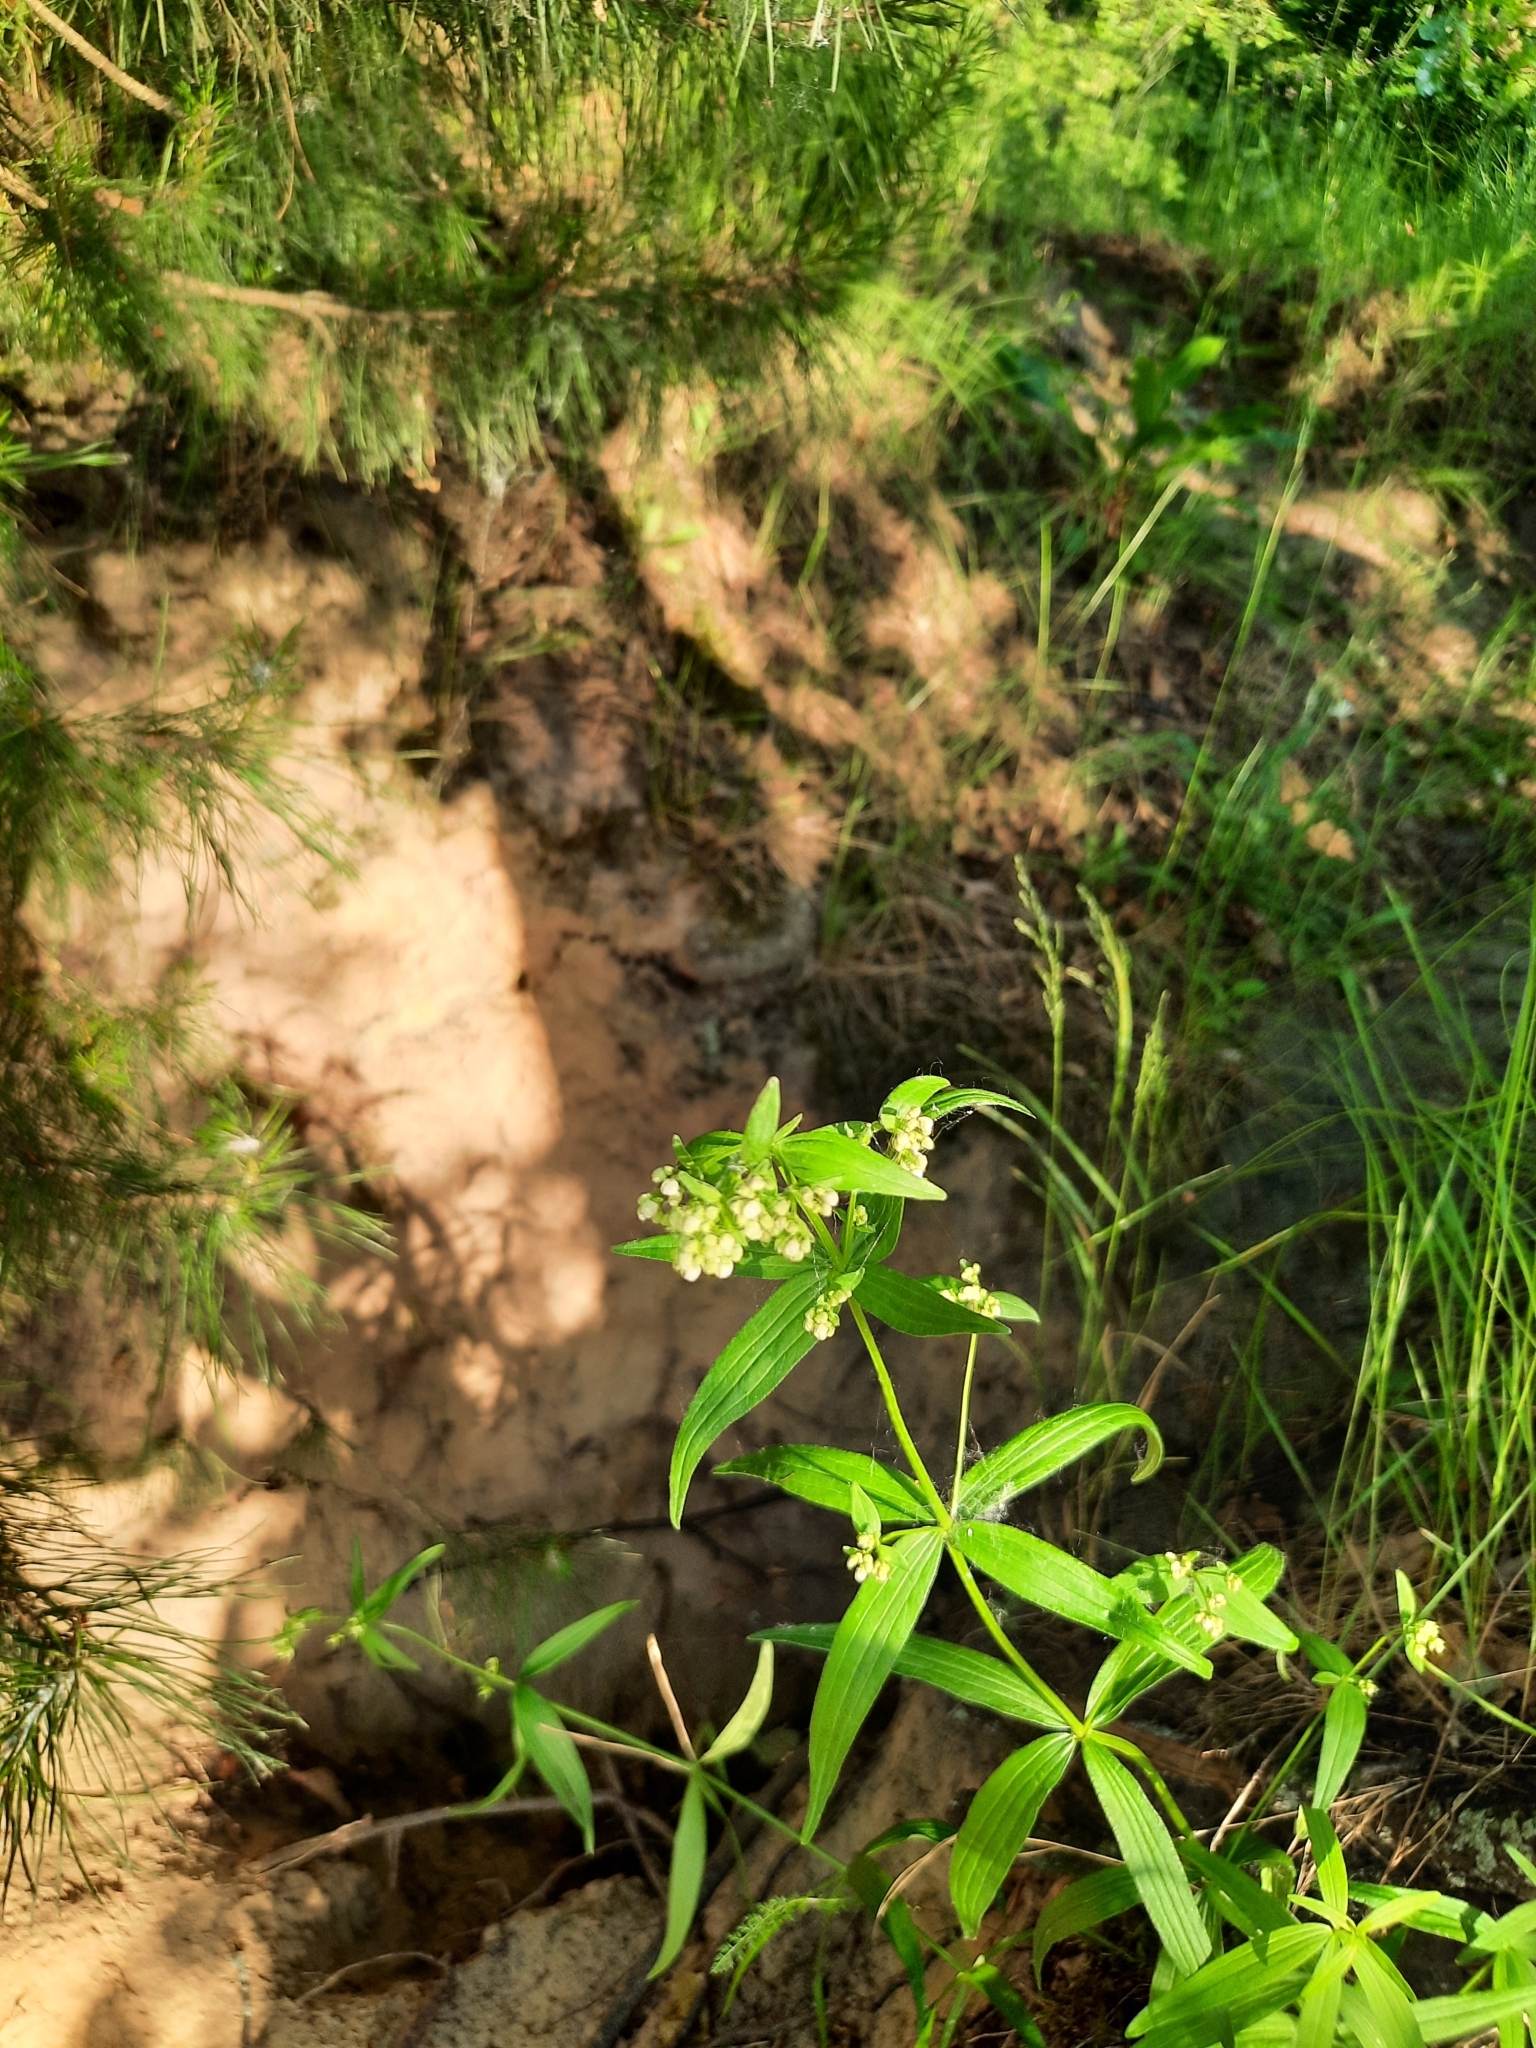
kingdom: Plantae
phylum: Tracheophyta
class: Magnoliopsida
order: Gentianales
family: Rubiaceae
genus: Galium
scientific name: Galium boreale
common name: Northern bedstraw
